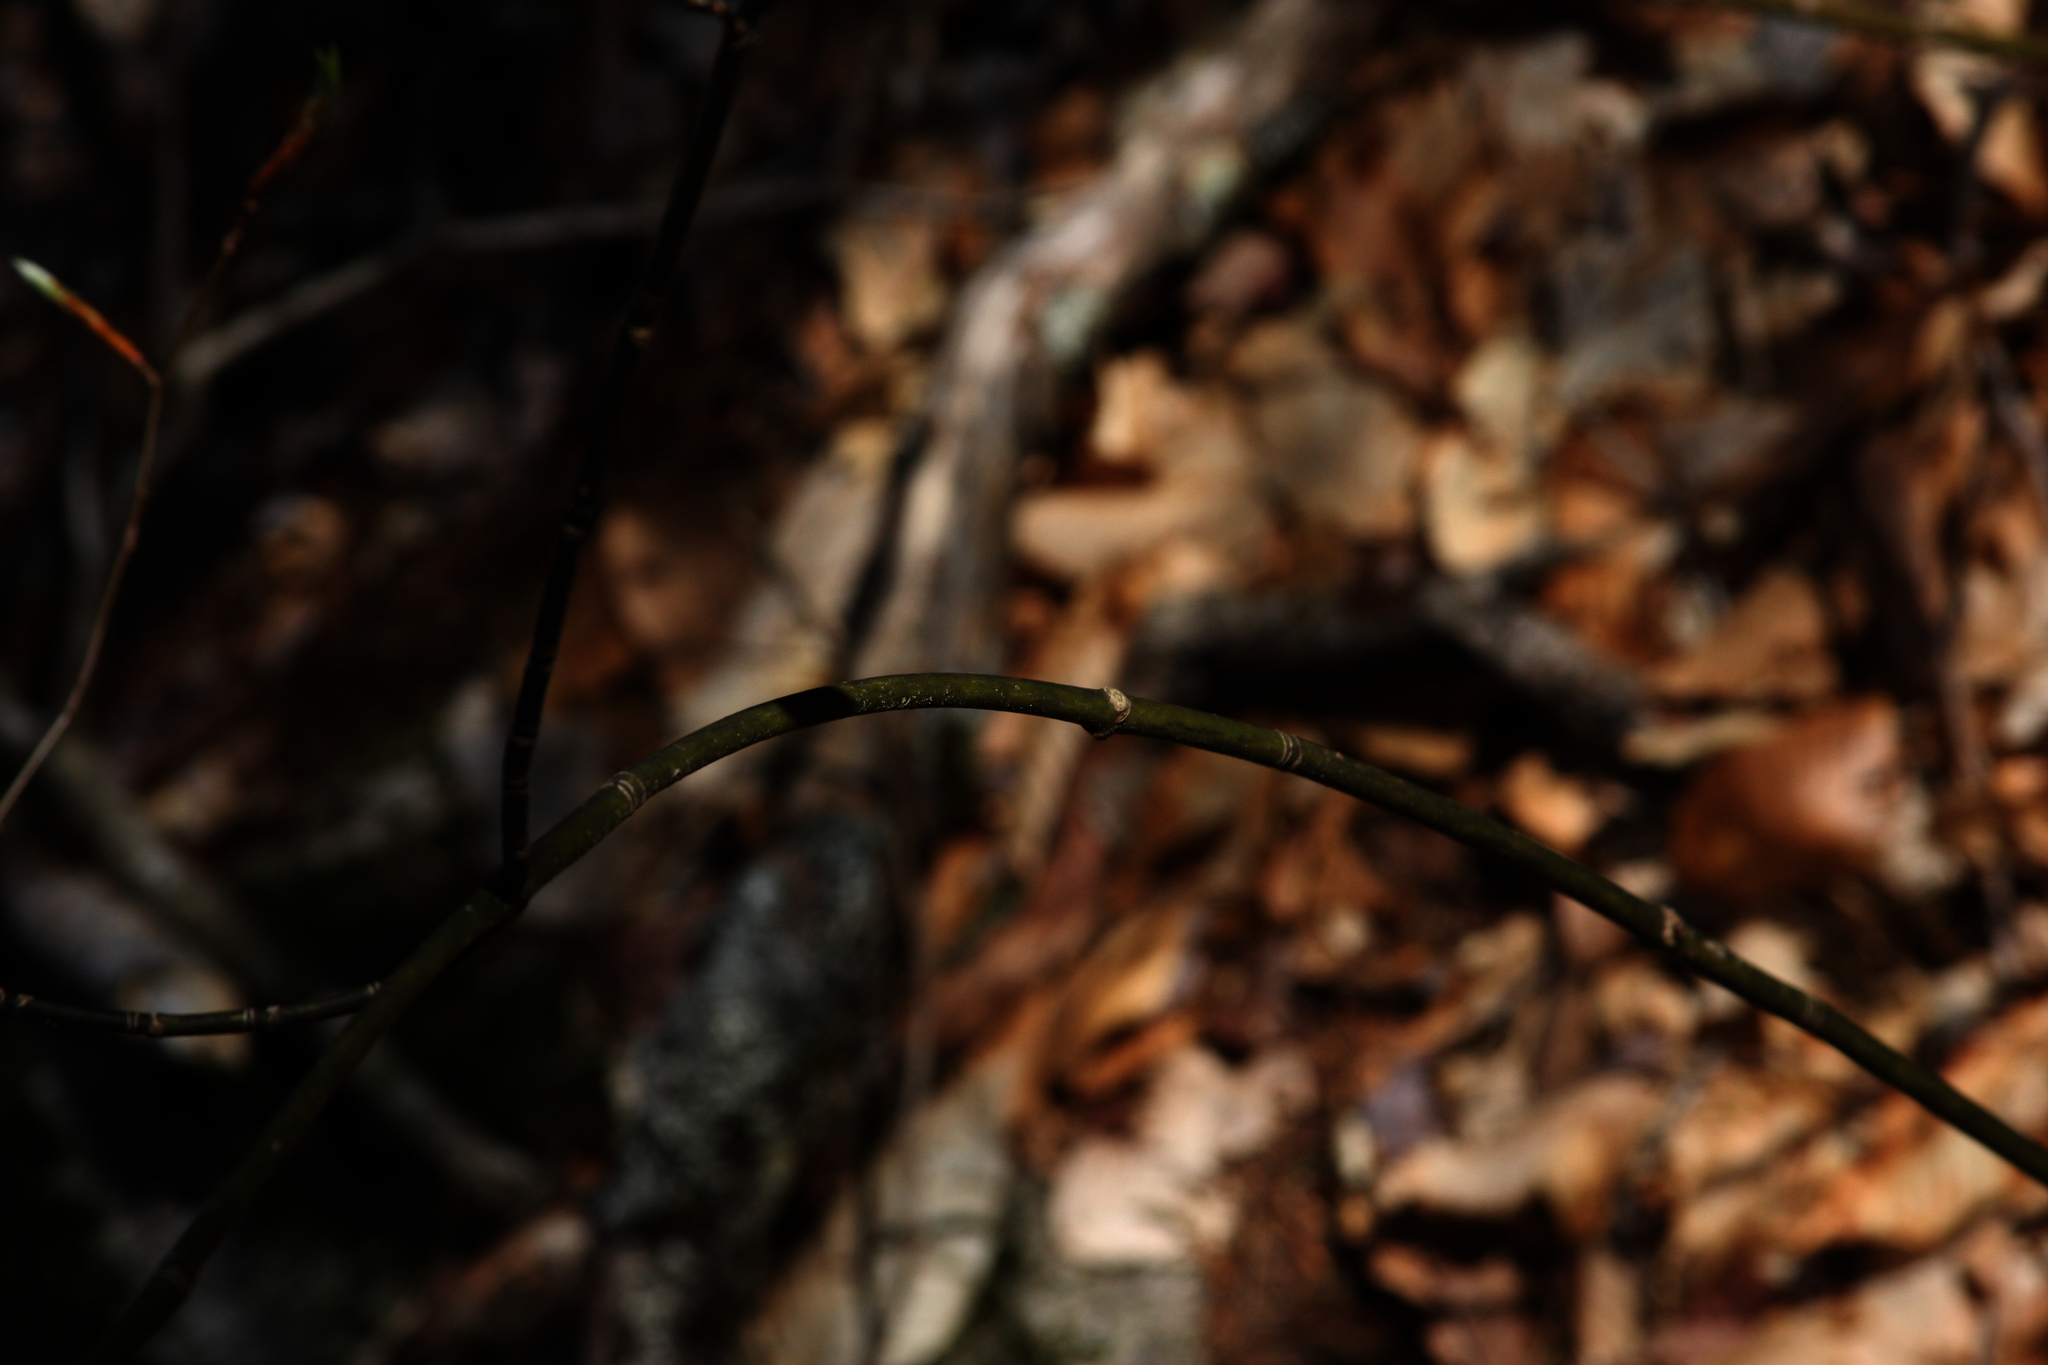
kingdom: Plantae
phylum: Tracheophyta
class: Magnoliopsida
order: Sapindales
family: Sapindaceae
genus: Acer
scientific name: Acer pensylvanicum
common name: Moosewood
